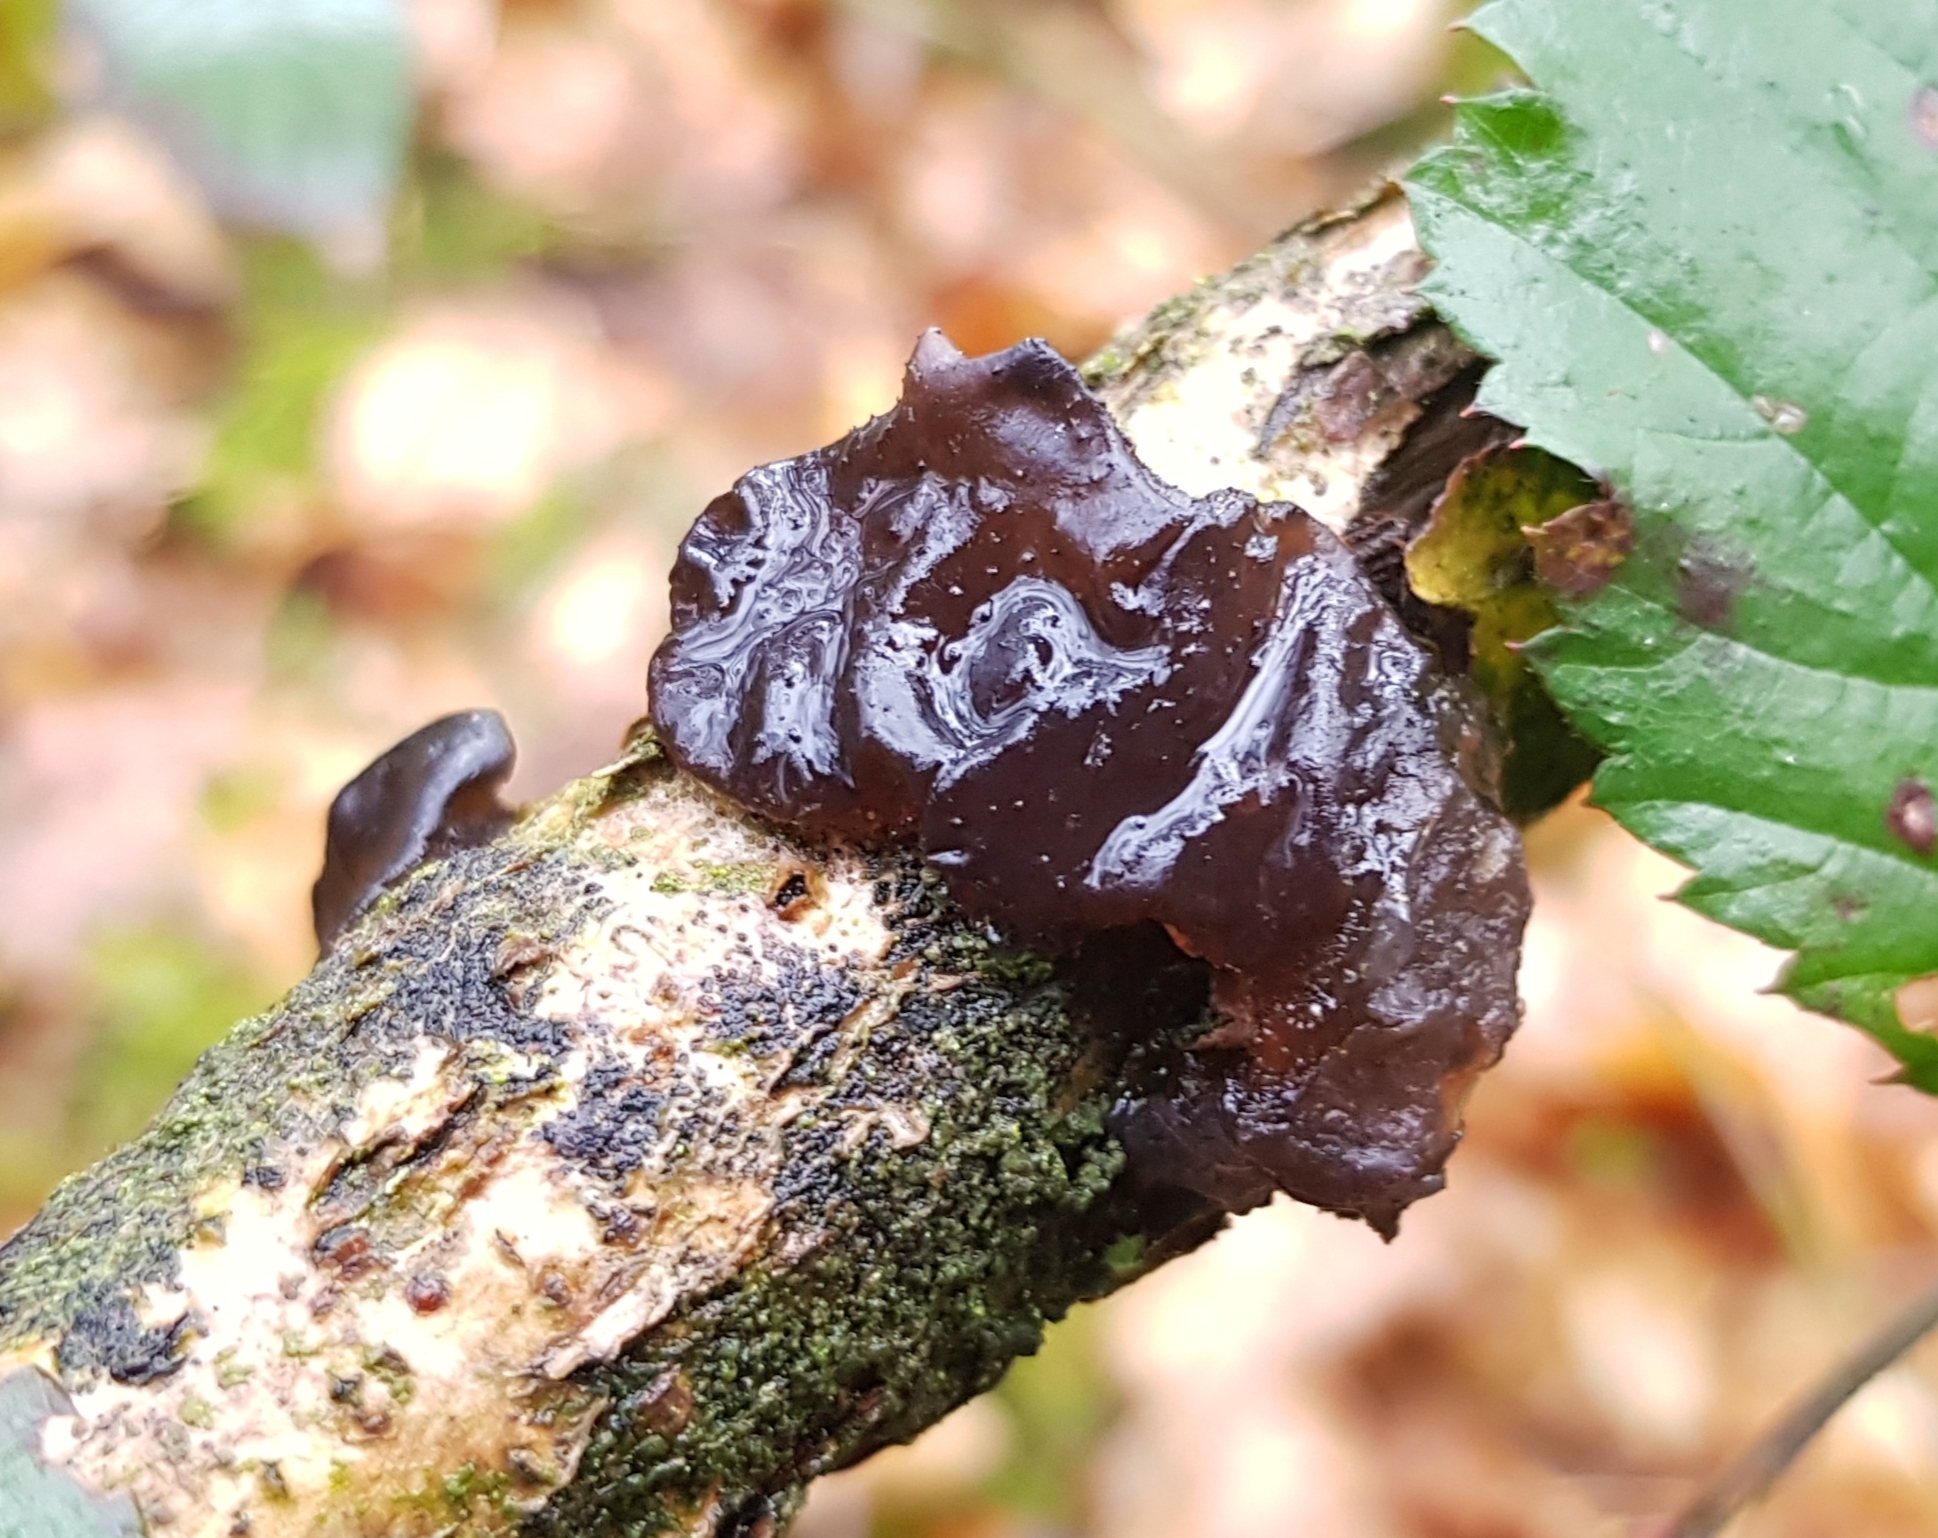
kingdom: Fungi
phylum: Basidiomycota
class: Agaricomycetes
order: Auriculariales
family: Auriculariaceae
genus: Exidia
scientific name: Exidia nigricans
